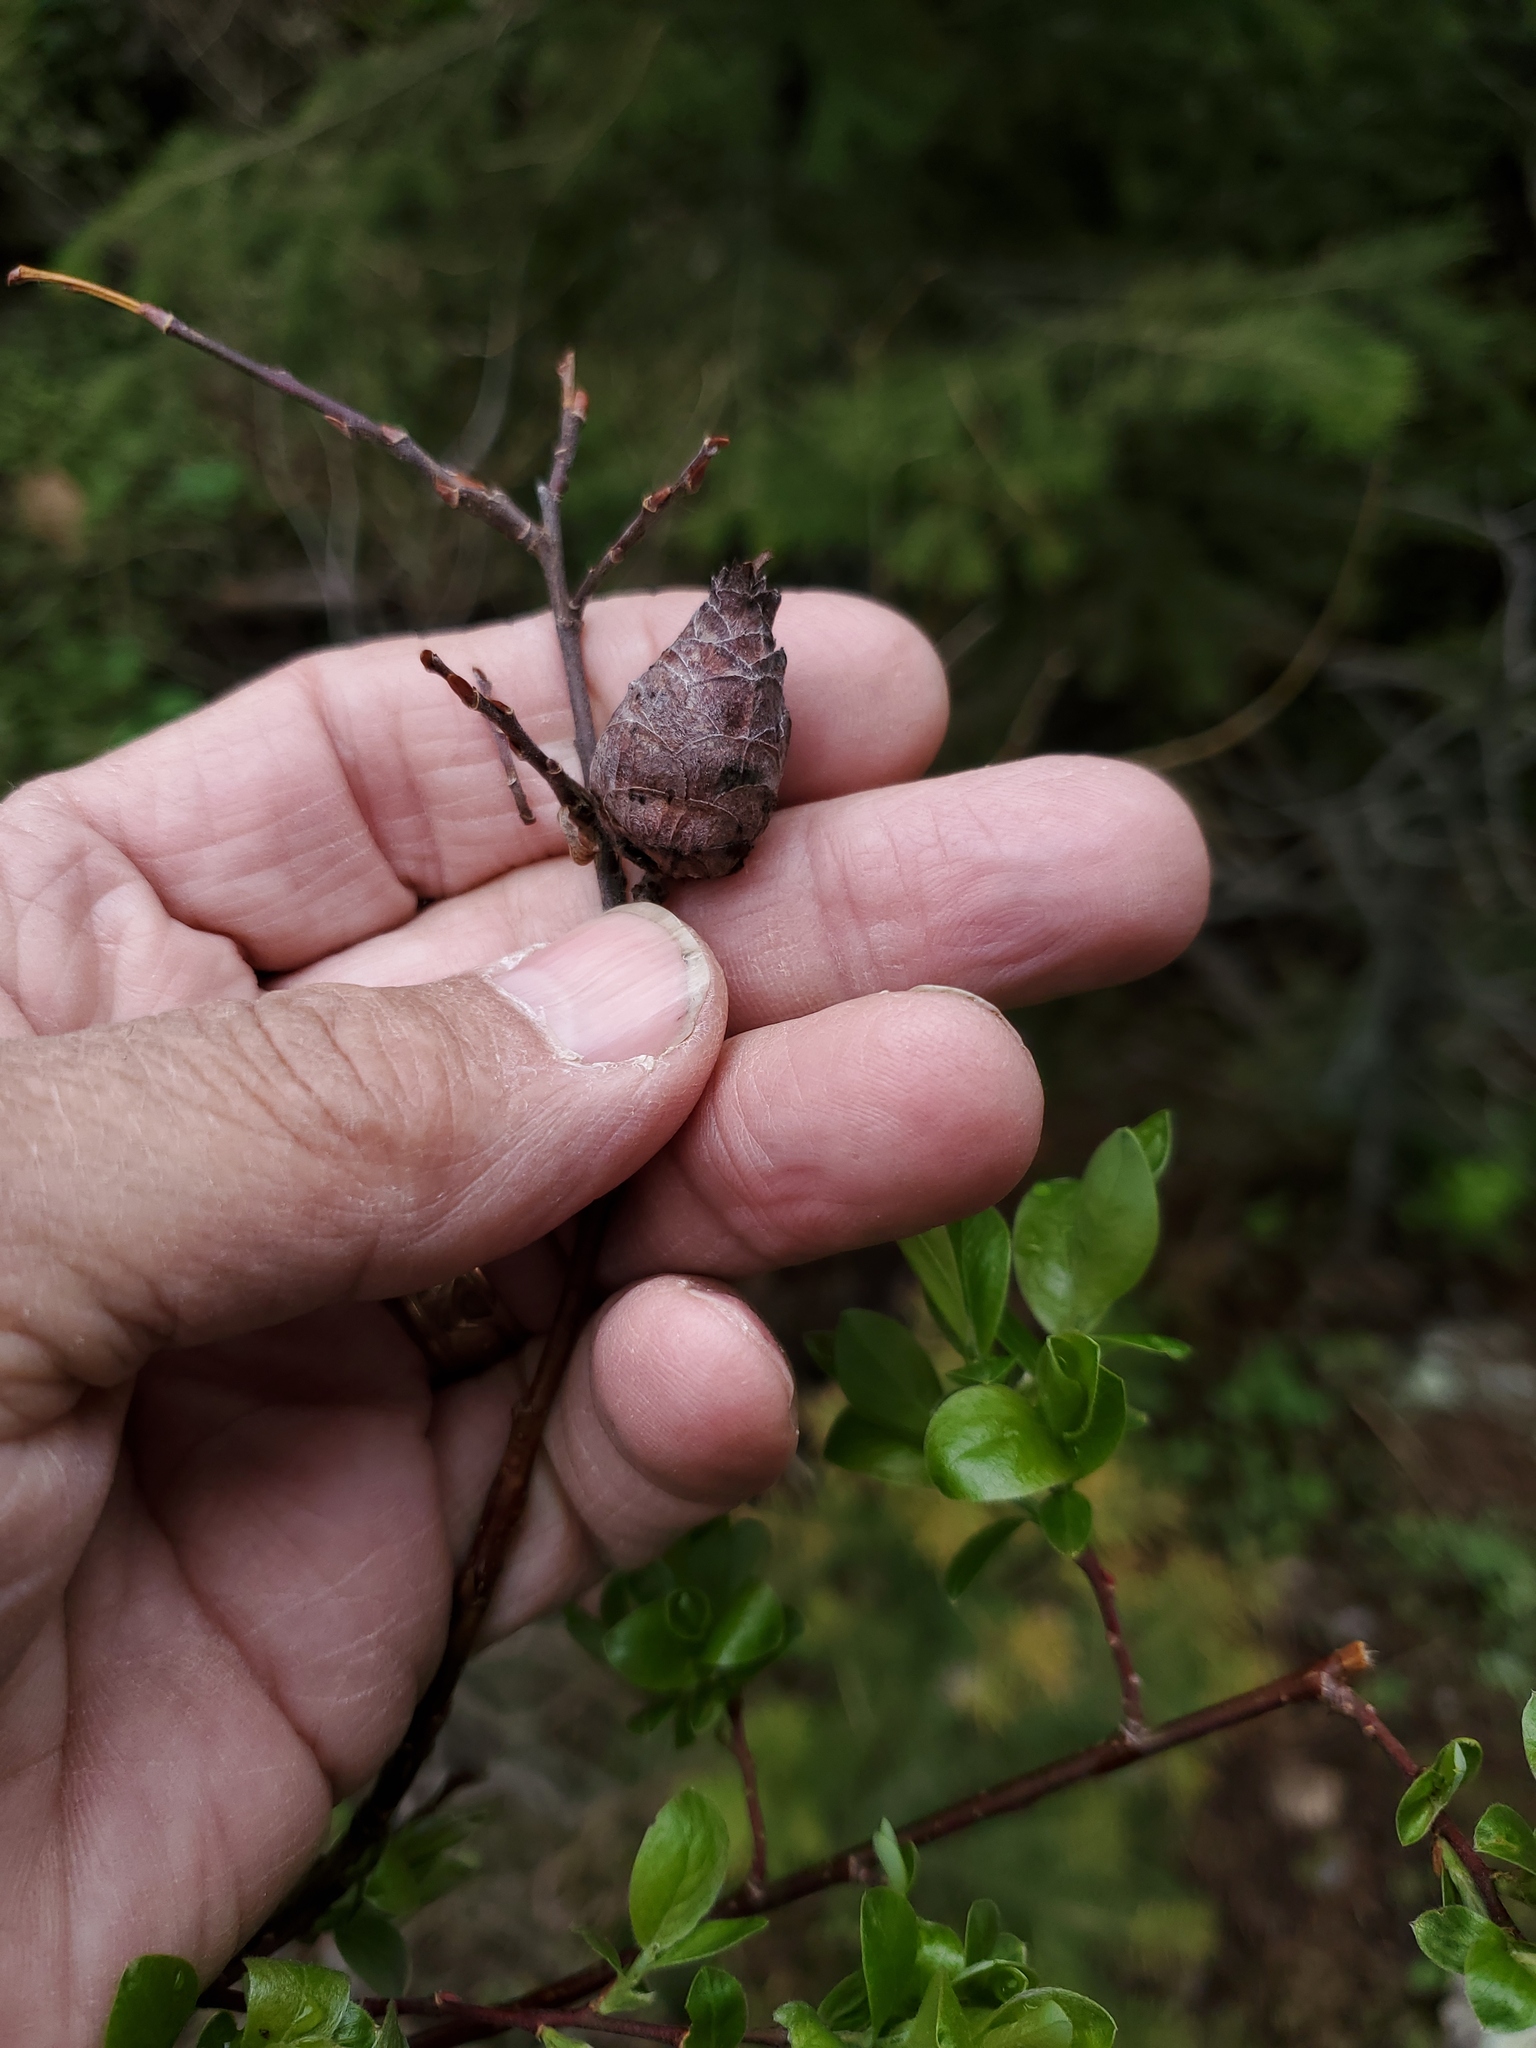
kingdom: Animalia
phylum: Arthropoda
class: Insecta
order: Diptera
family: Cecidomyiidae
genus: Rabdophaga
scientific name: Rabdophaga strobiloides
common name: Willow pinecone gall midge
